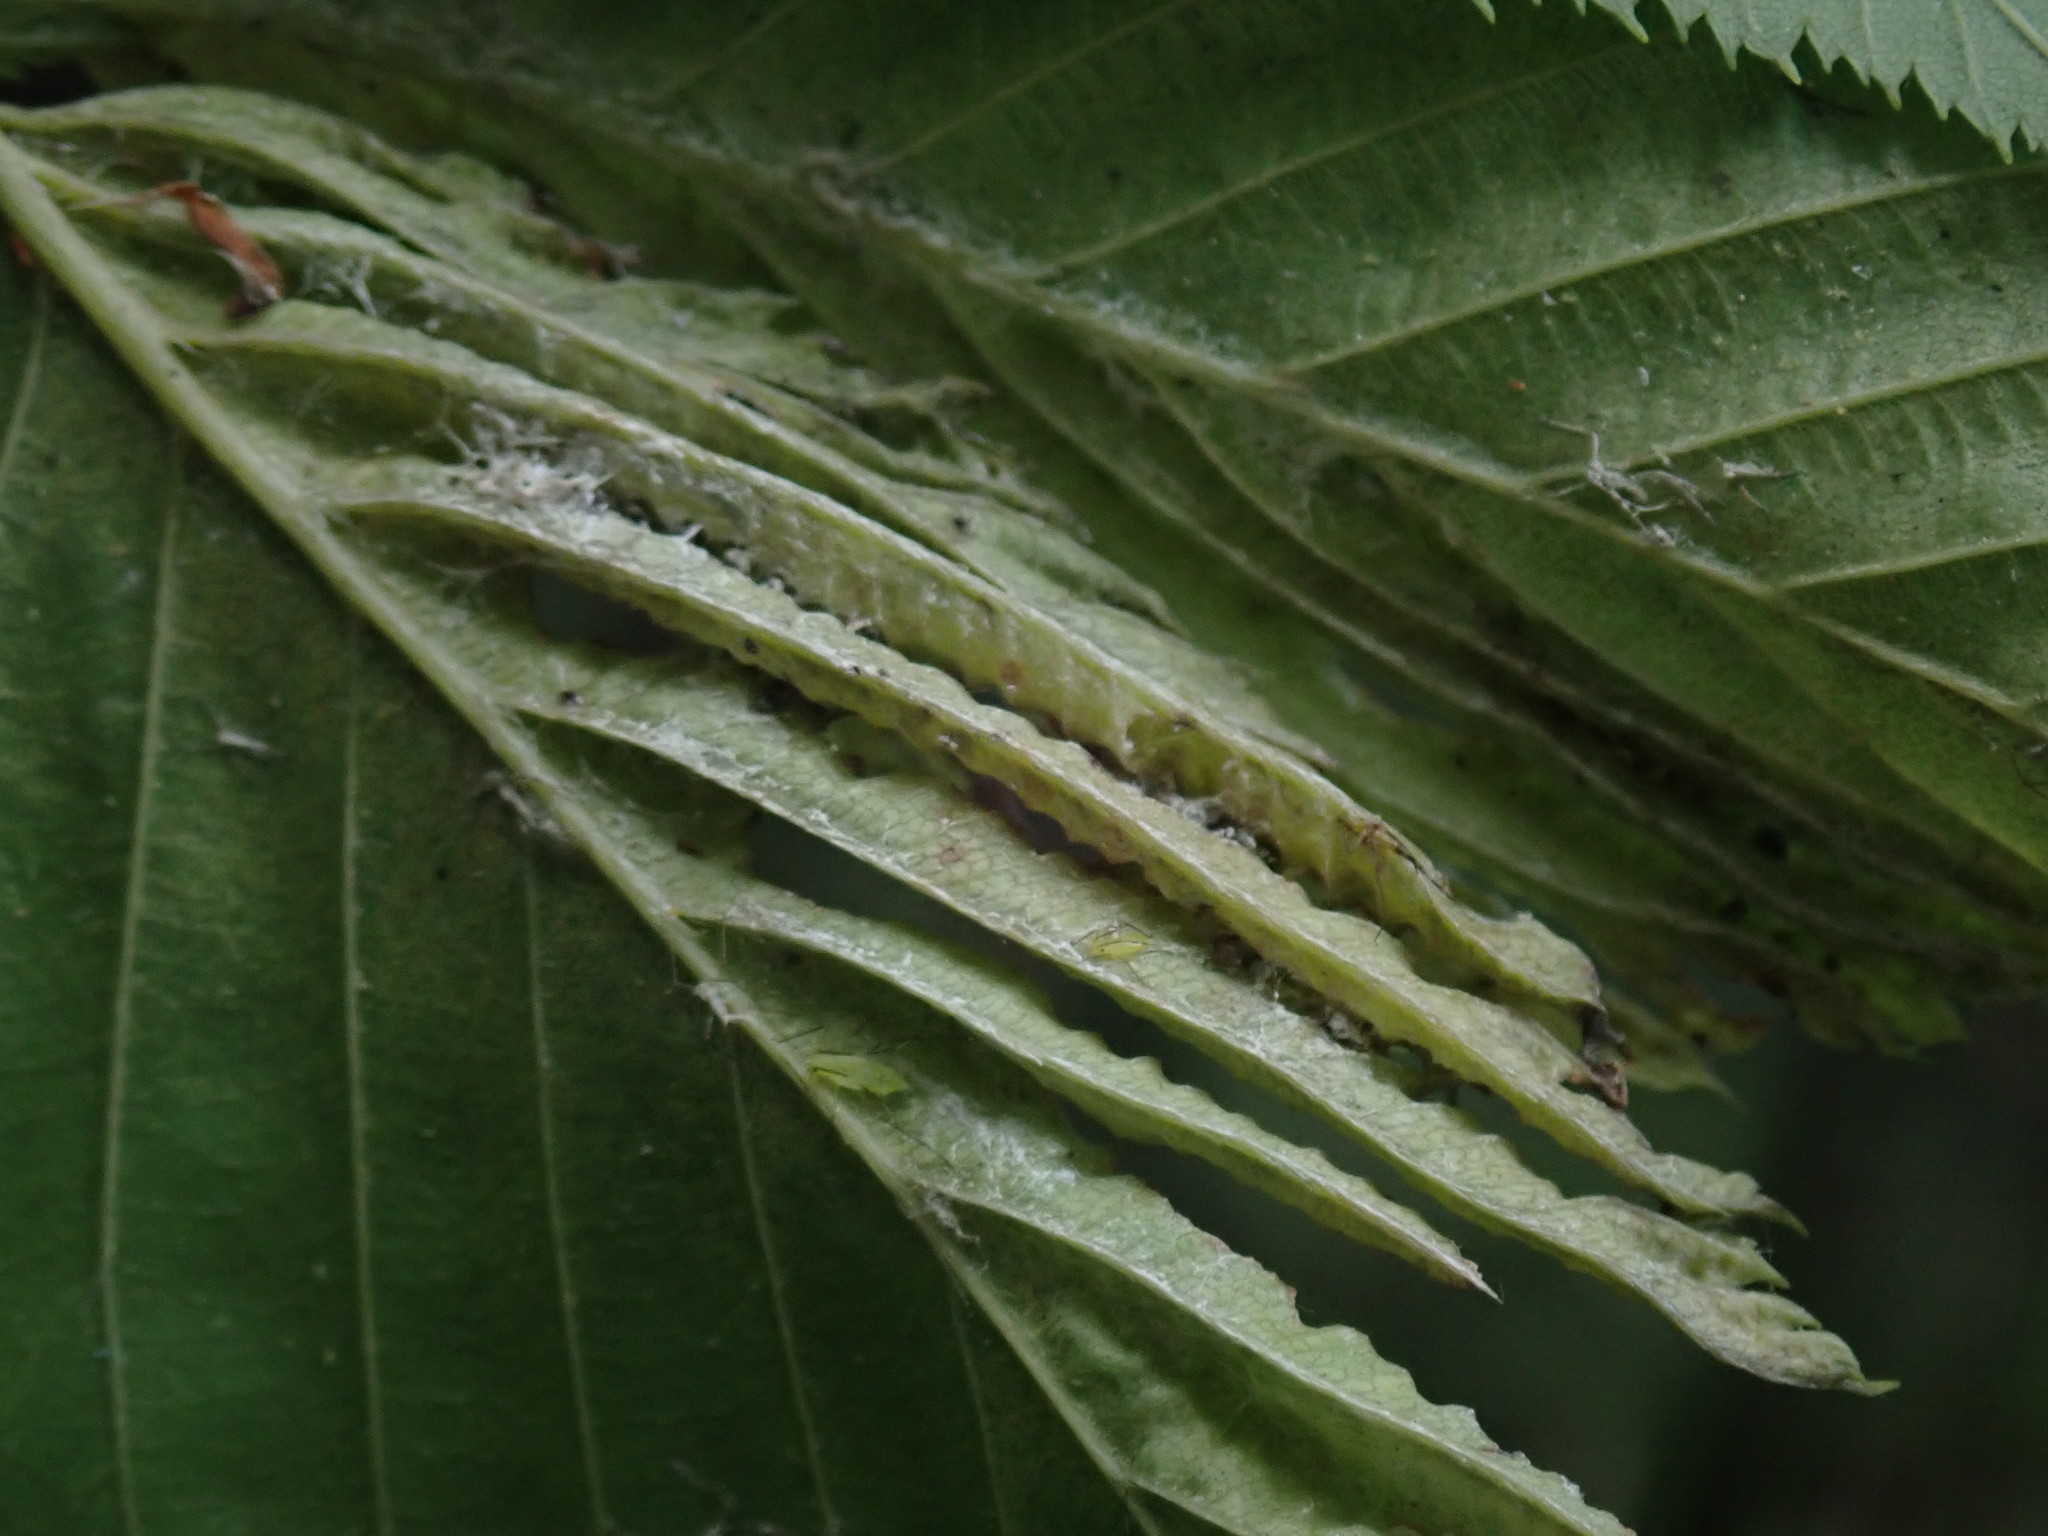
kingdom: Animalia
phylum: Arthropoda
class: Insecta
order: Hemiptera
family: Aphididae
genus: Hamamelistes
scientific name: Hamamelistes spinosus
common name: Witch hazel gall aphid
